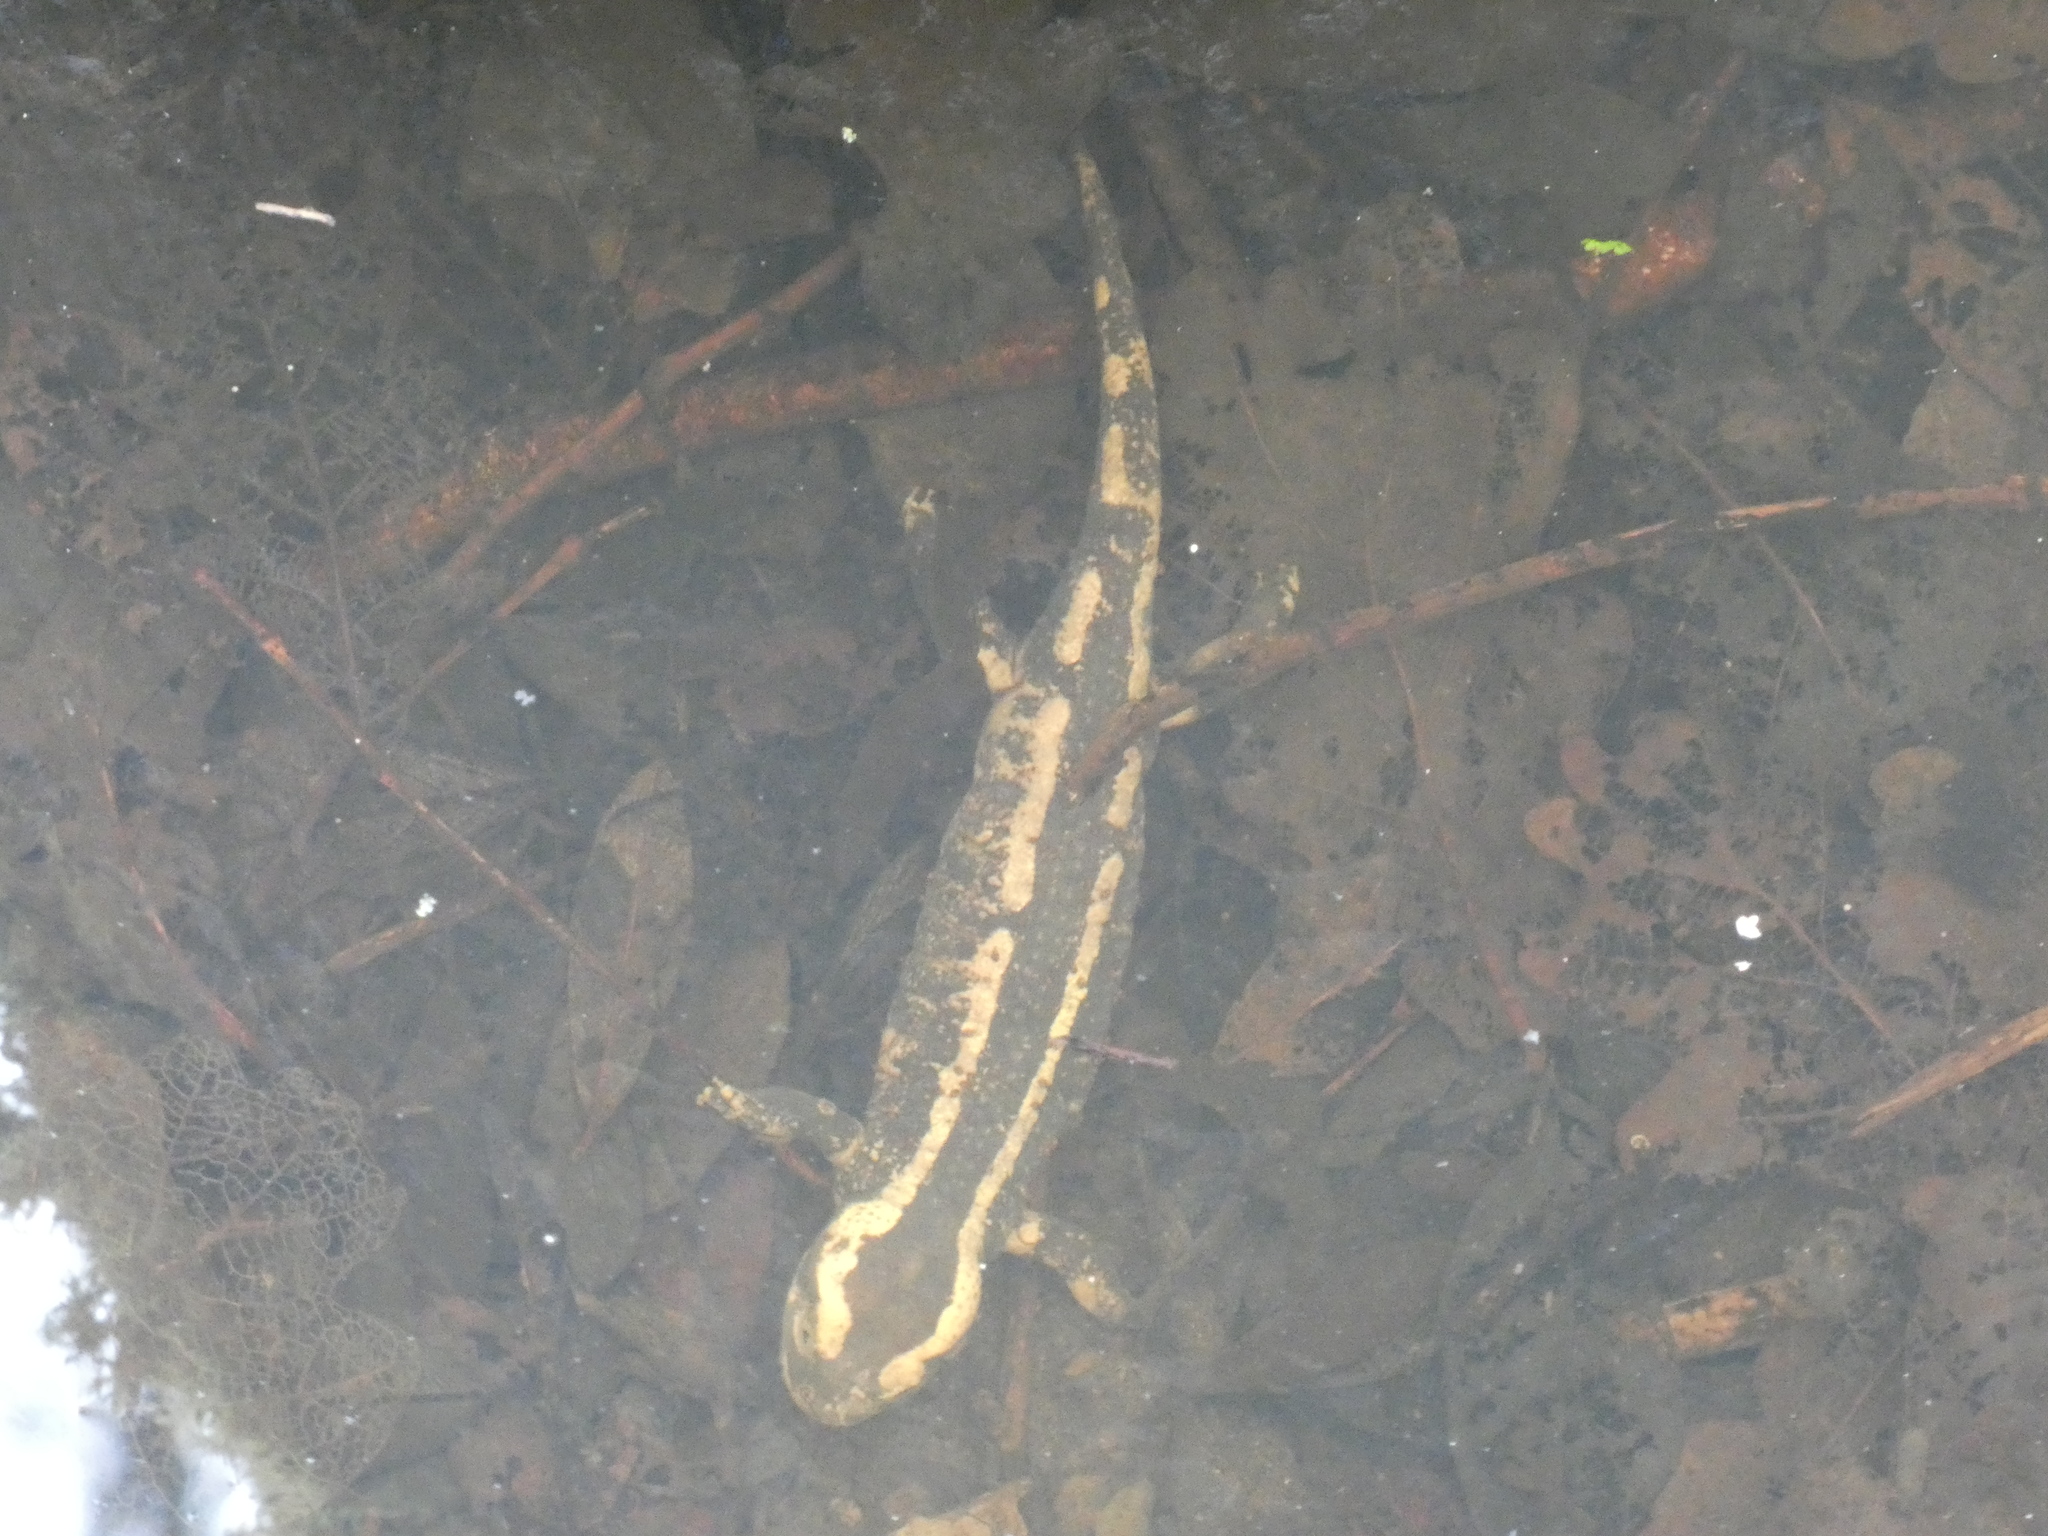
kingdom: Animalia
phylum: Chordata
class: Amphibia
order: Caudata
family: Salamandridae
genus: Salamandra
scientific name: Salamandra salamandra
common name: Fire salamander
